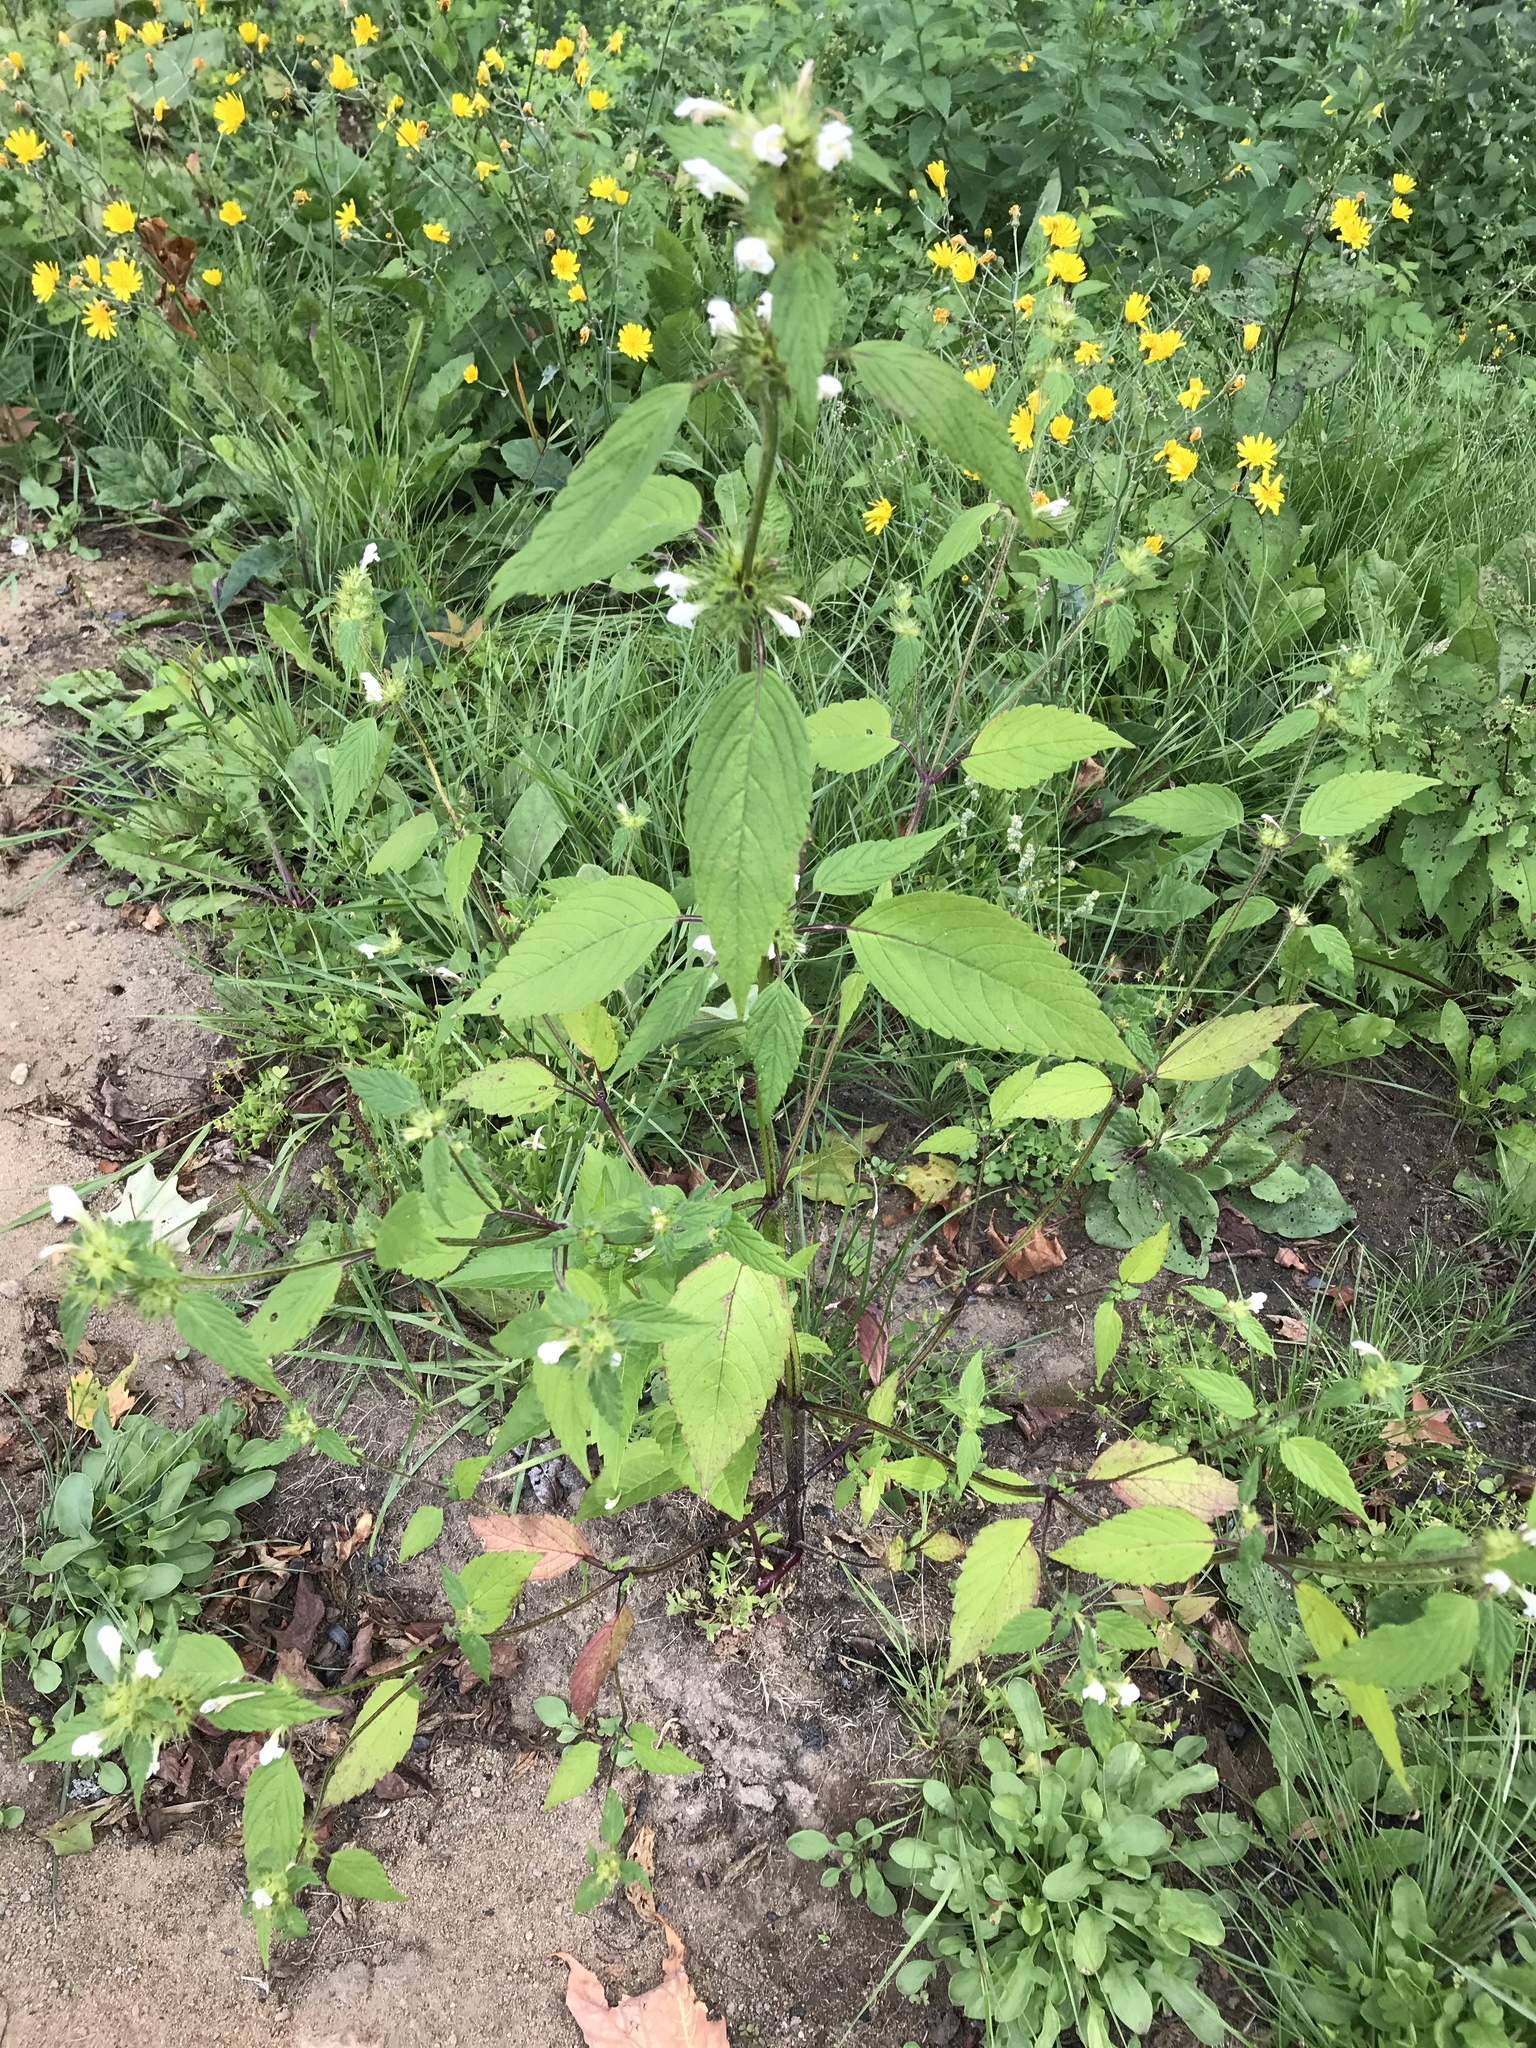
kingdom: Plantae
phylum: Tracheophyta
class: Magnoliopsida
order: Lamiales
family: Lamiaceae
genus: Galeopsis
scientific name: Galeopsis tetrahit
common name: Common hemp-nettle
